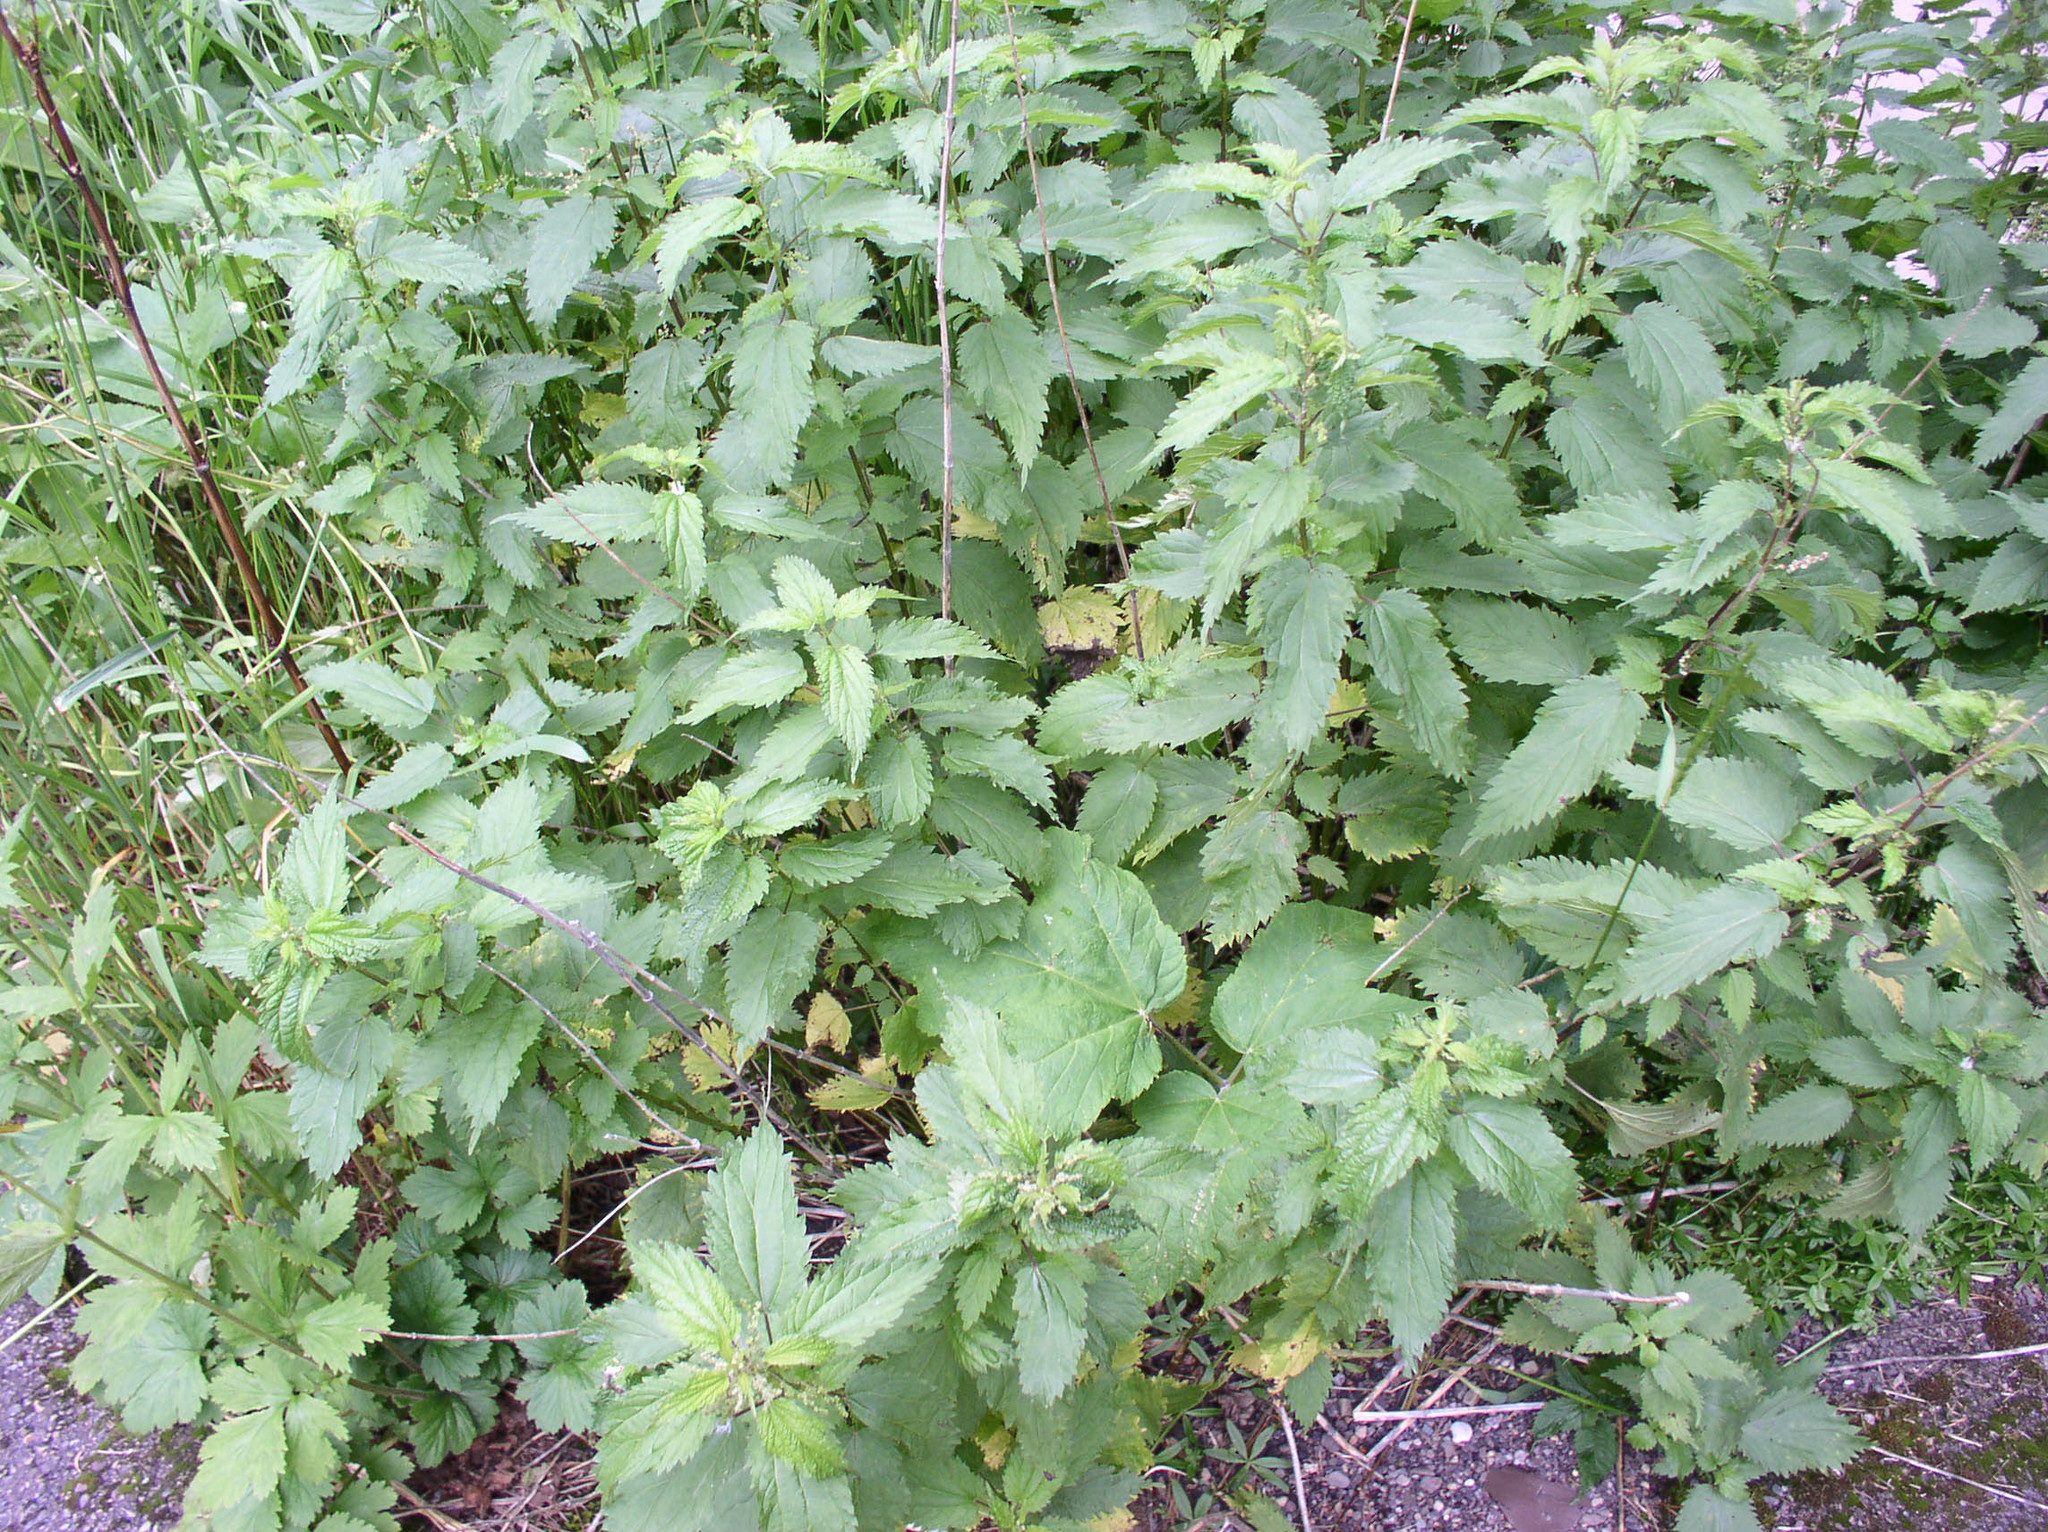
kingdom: Plantae
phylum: Tracheophyta
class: Magnoliopsida
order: Rosales
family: Urticaceae
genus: Urtica
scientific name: Urtica gracilis
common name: Slender stinging nettle
